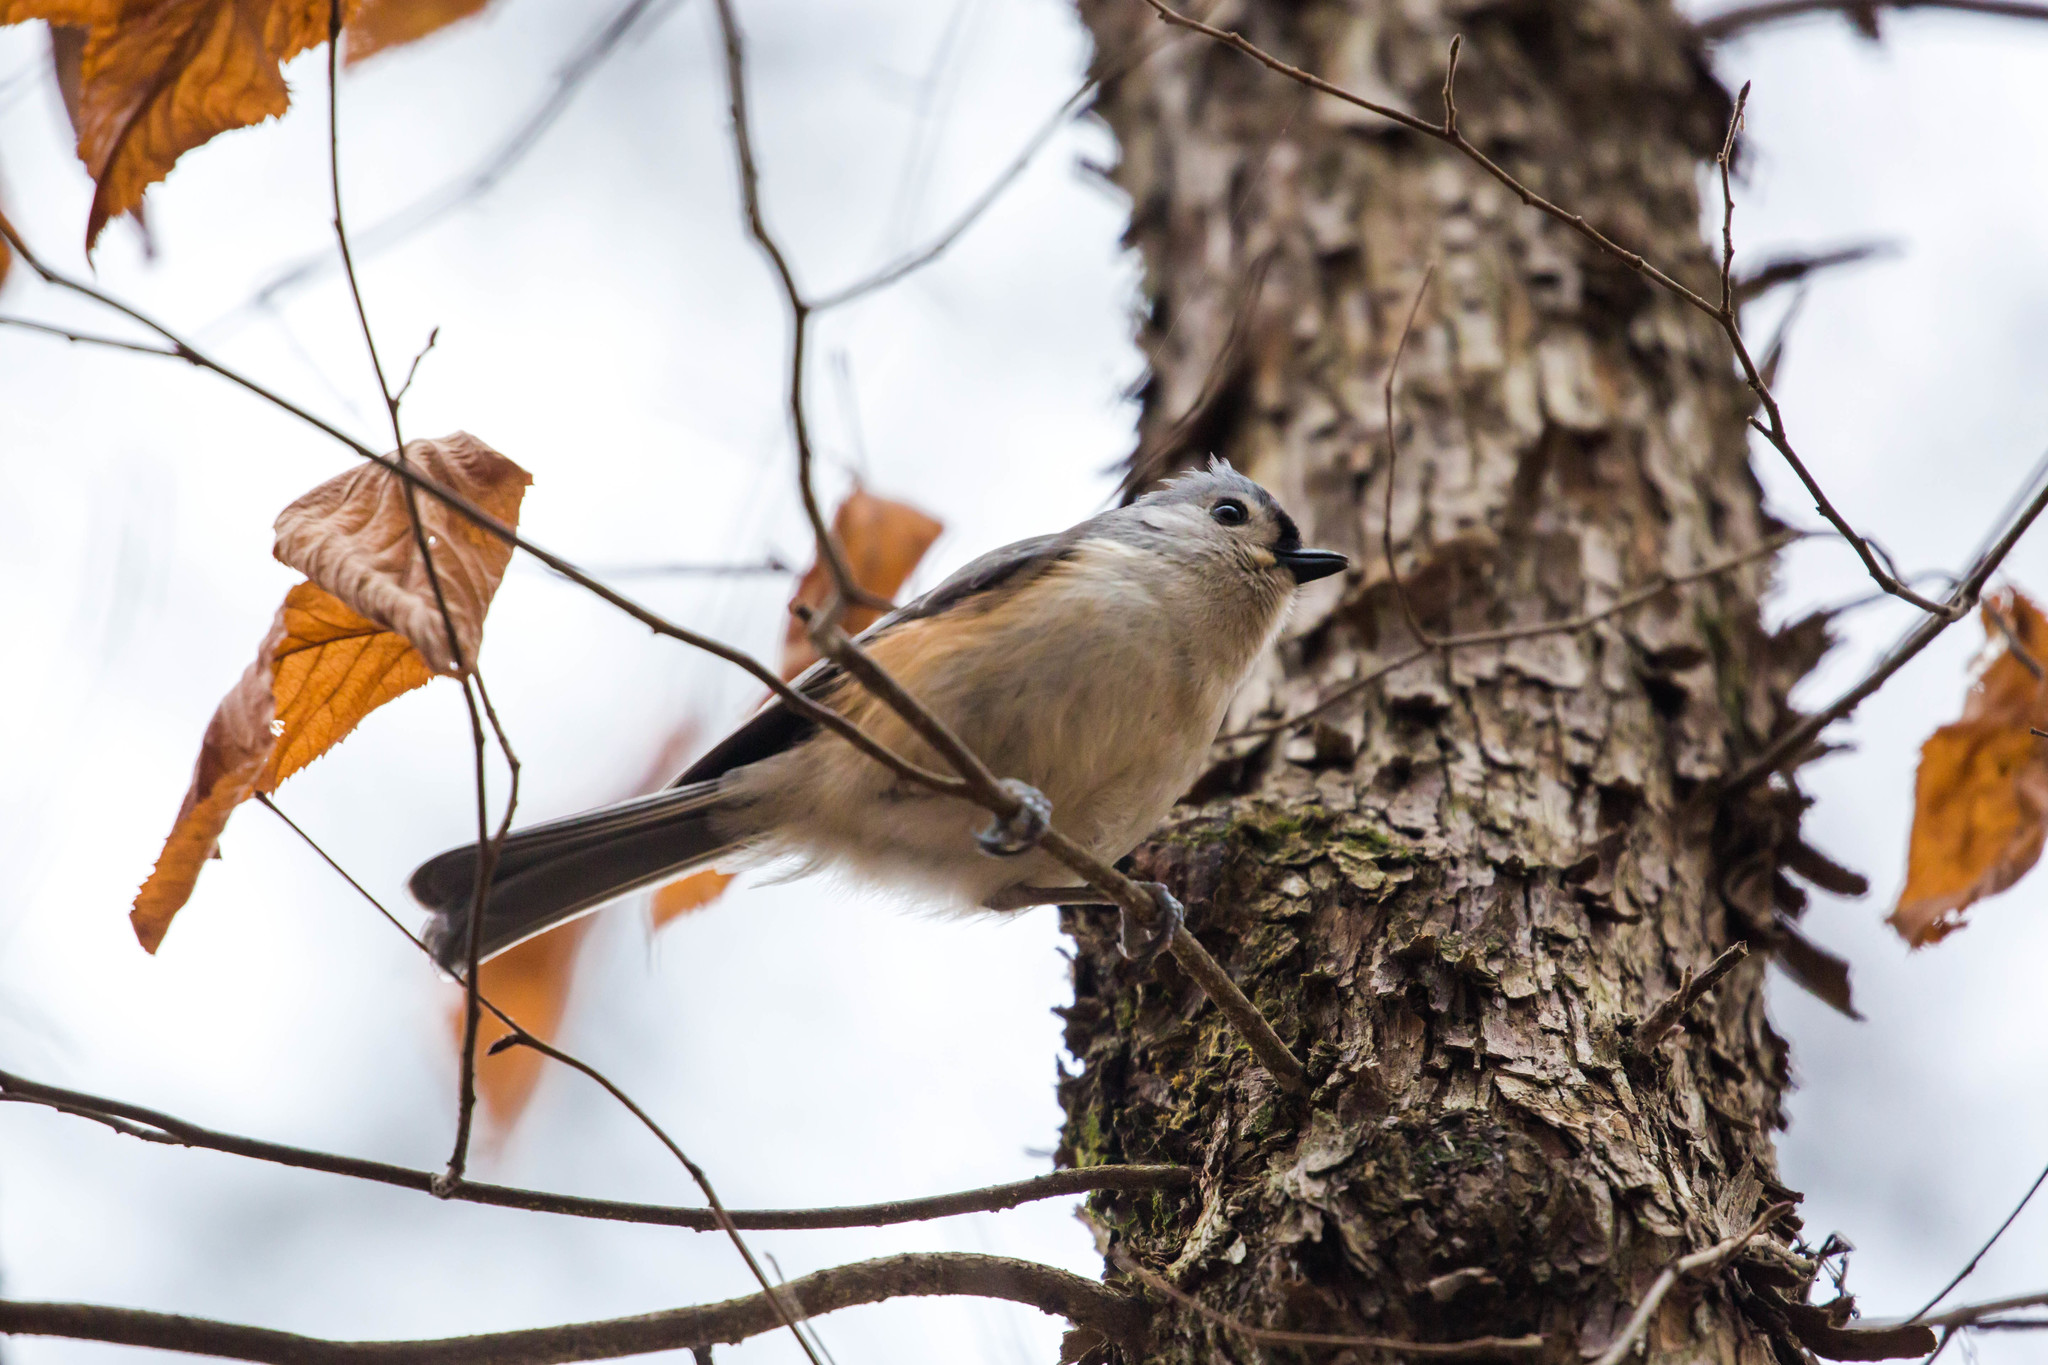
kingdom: Animalia
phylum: Chordata
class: Aves
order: Passeriformes
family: Paridae
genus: Baeolophus
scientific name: Baeolophus bicolor
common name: Tufted titmouse
